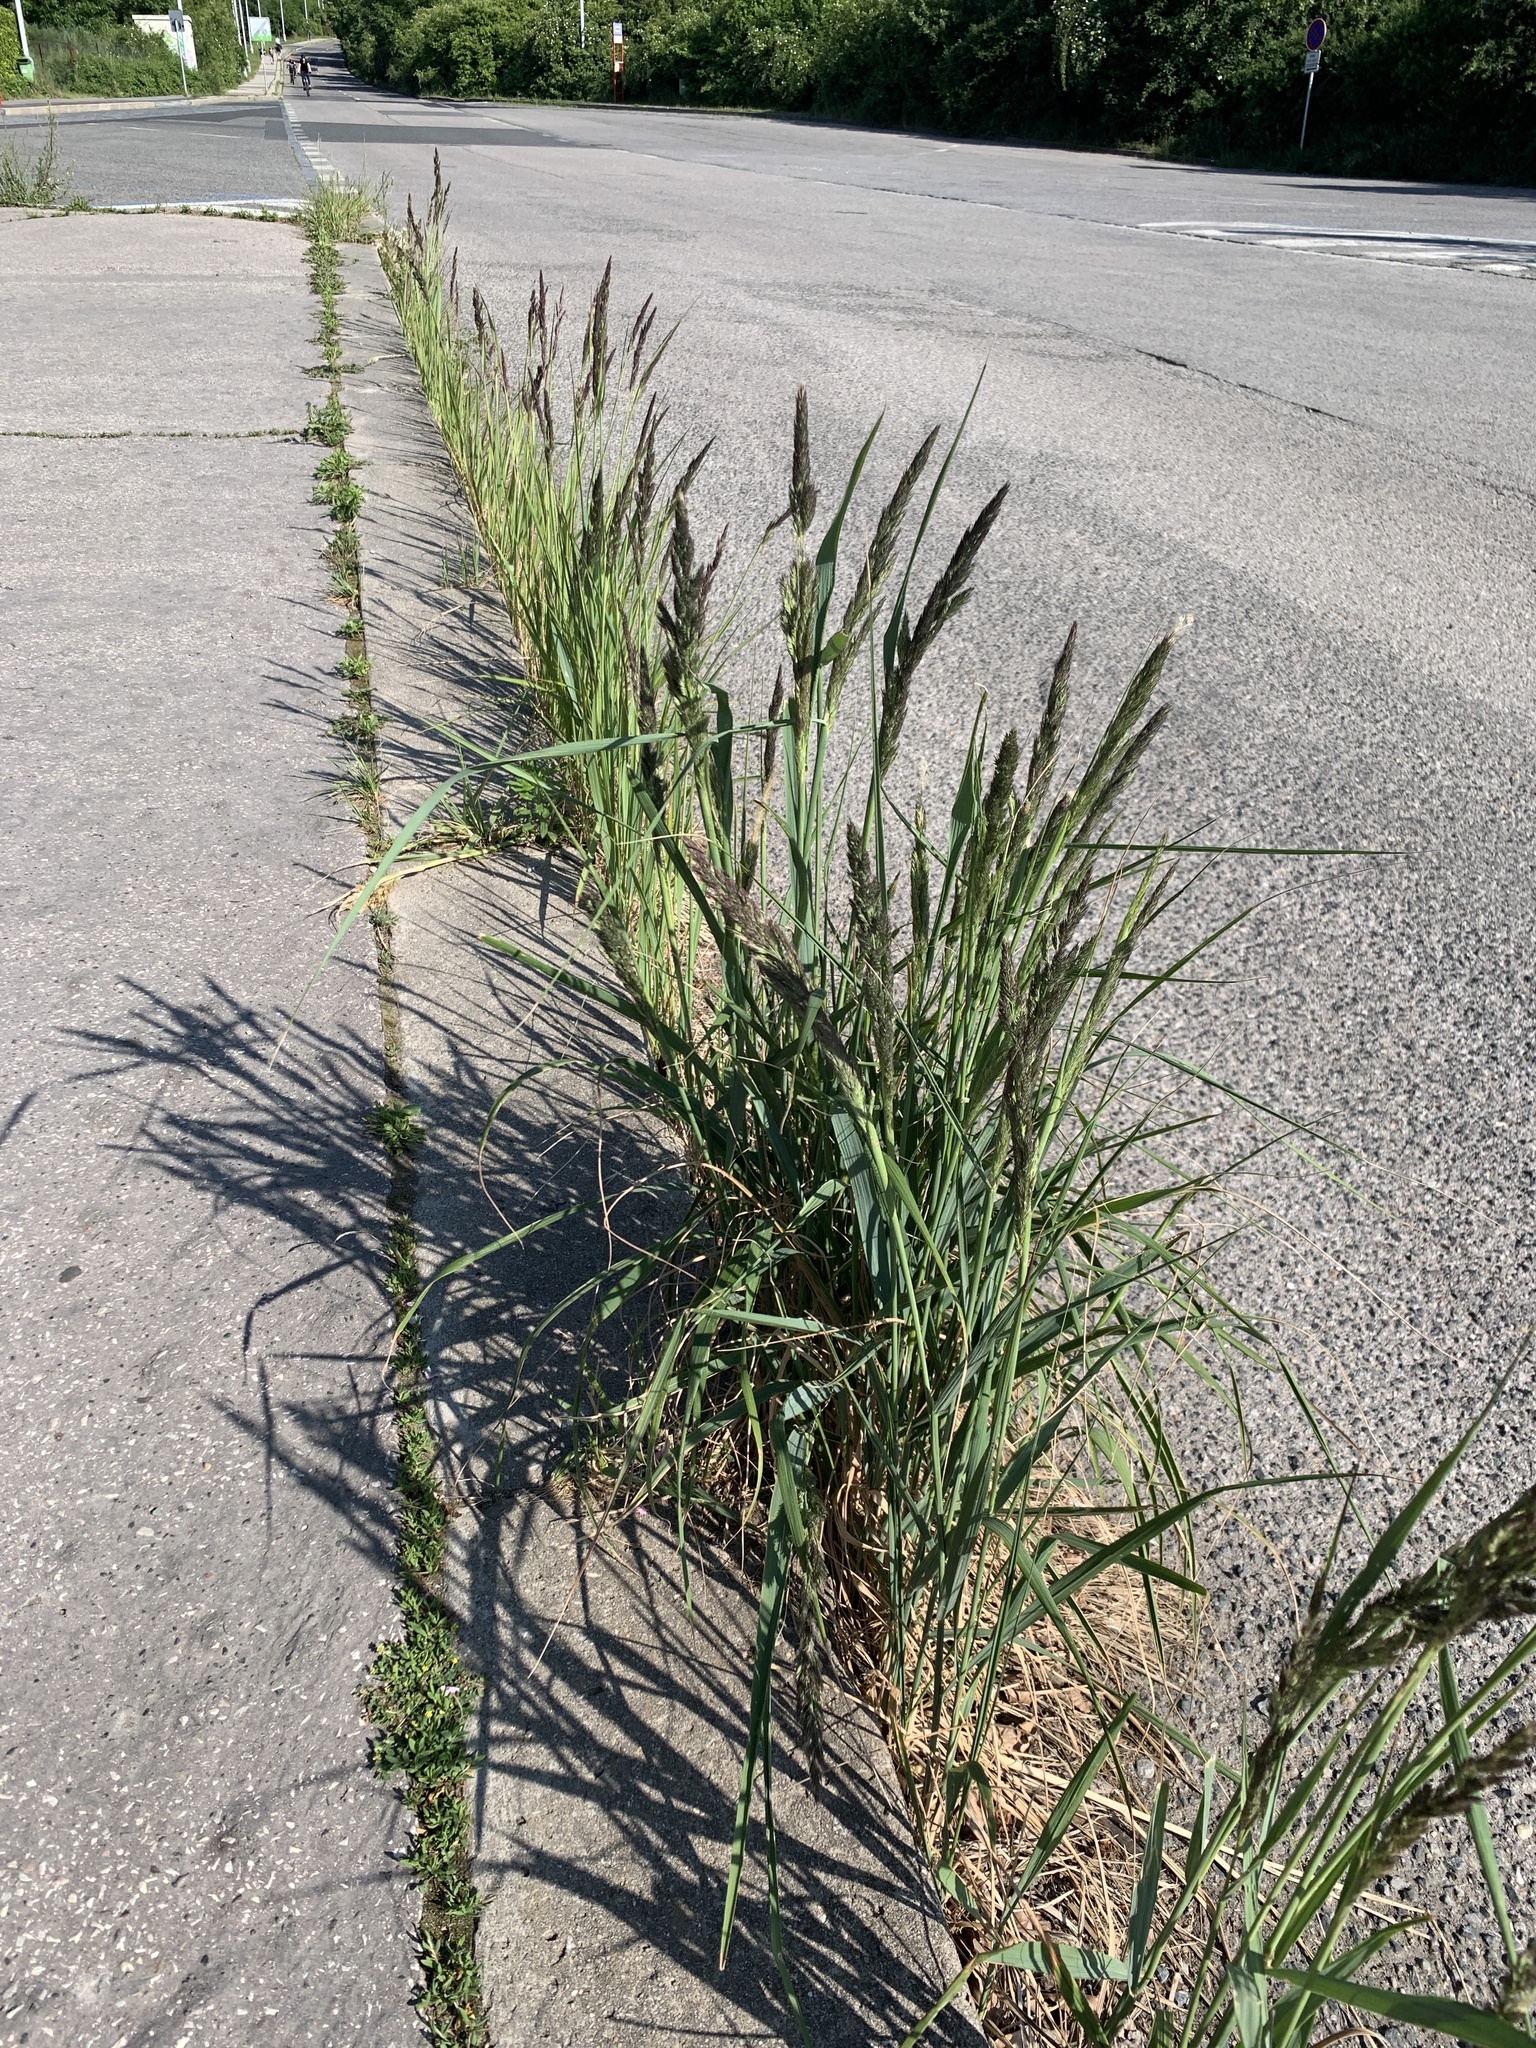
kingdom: Plantae
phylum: Tracheophyta
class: Liliopsida
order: Poales
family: Poaceae
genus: Calamagrostis
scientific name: Calamagrostis epigejos
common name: Wood small-reed
